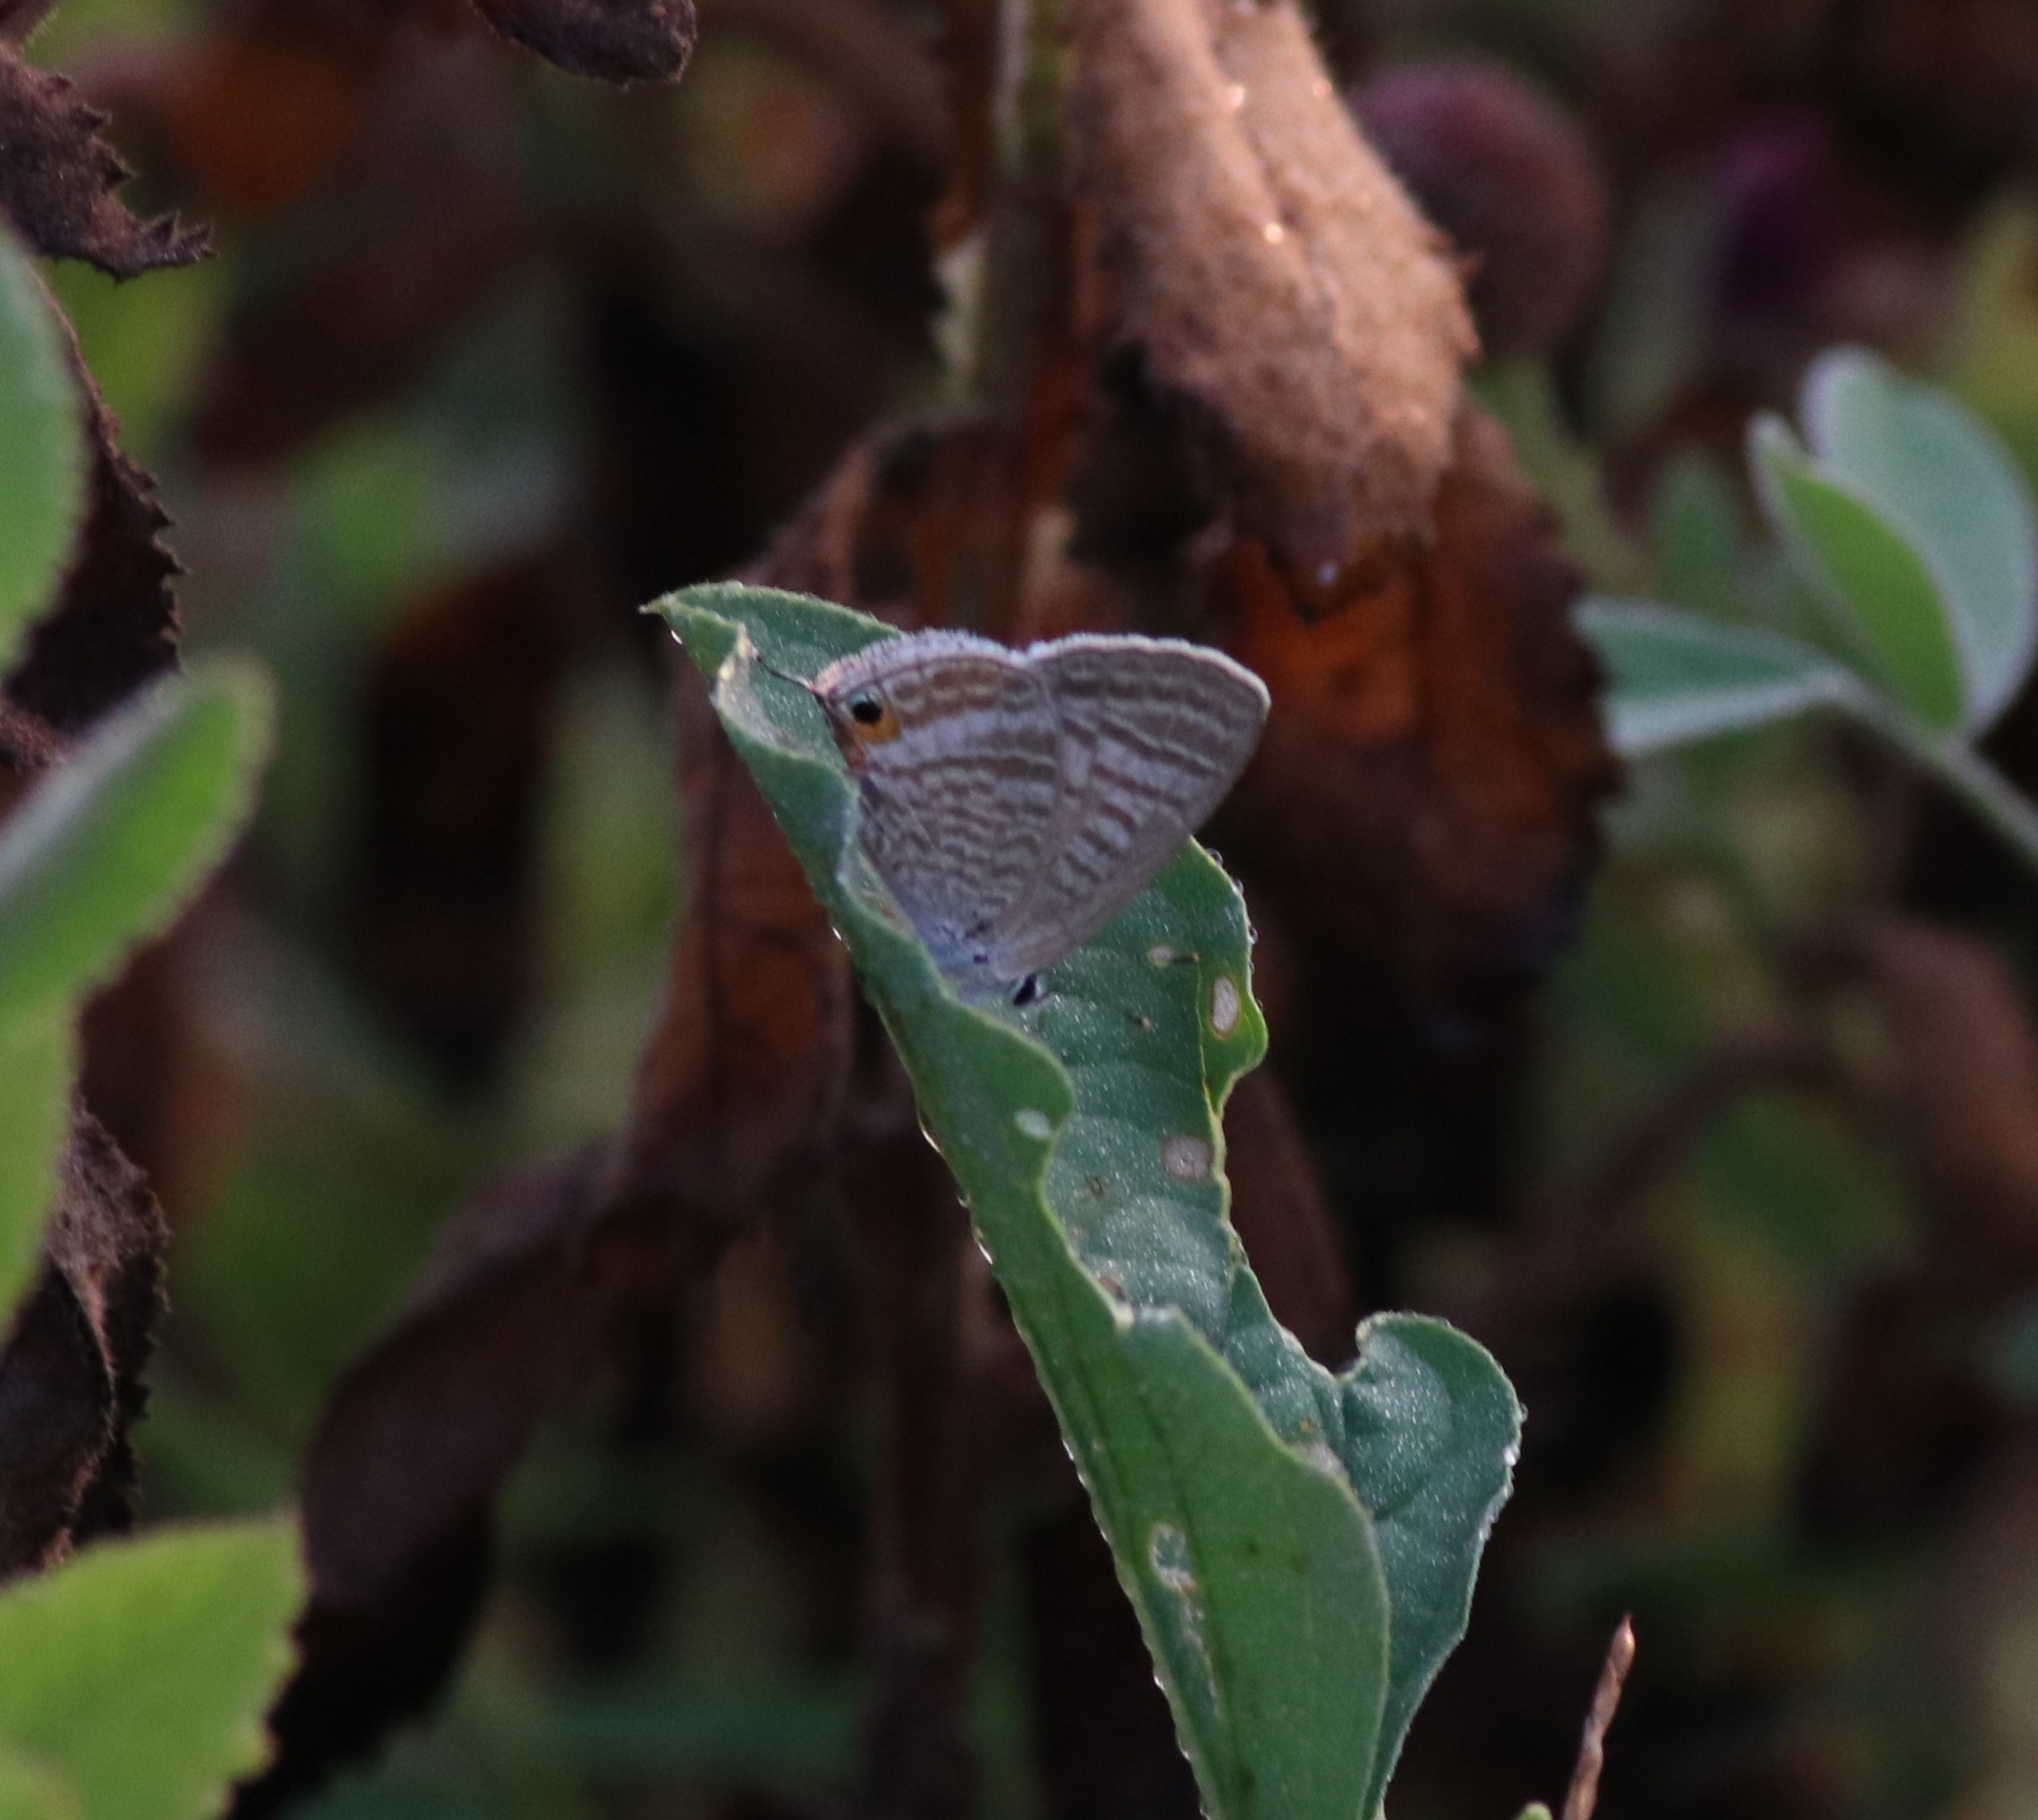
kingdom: Animalia
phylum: Arthropoda
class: Insecta
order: Lepidoptera
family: Lycaenidae
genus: Lampides
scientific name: Lampides boeticus
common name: Long-tailed blue
